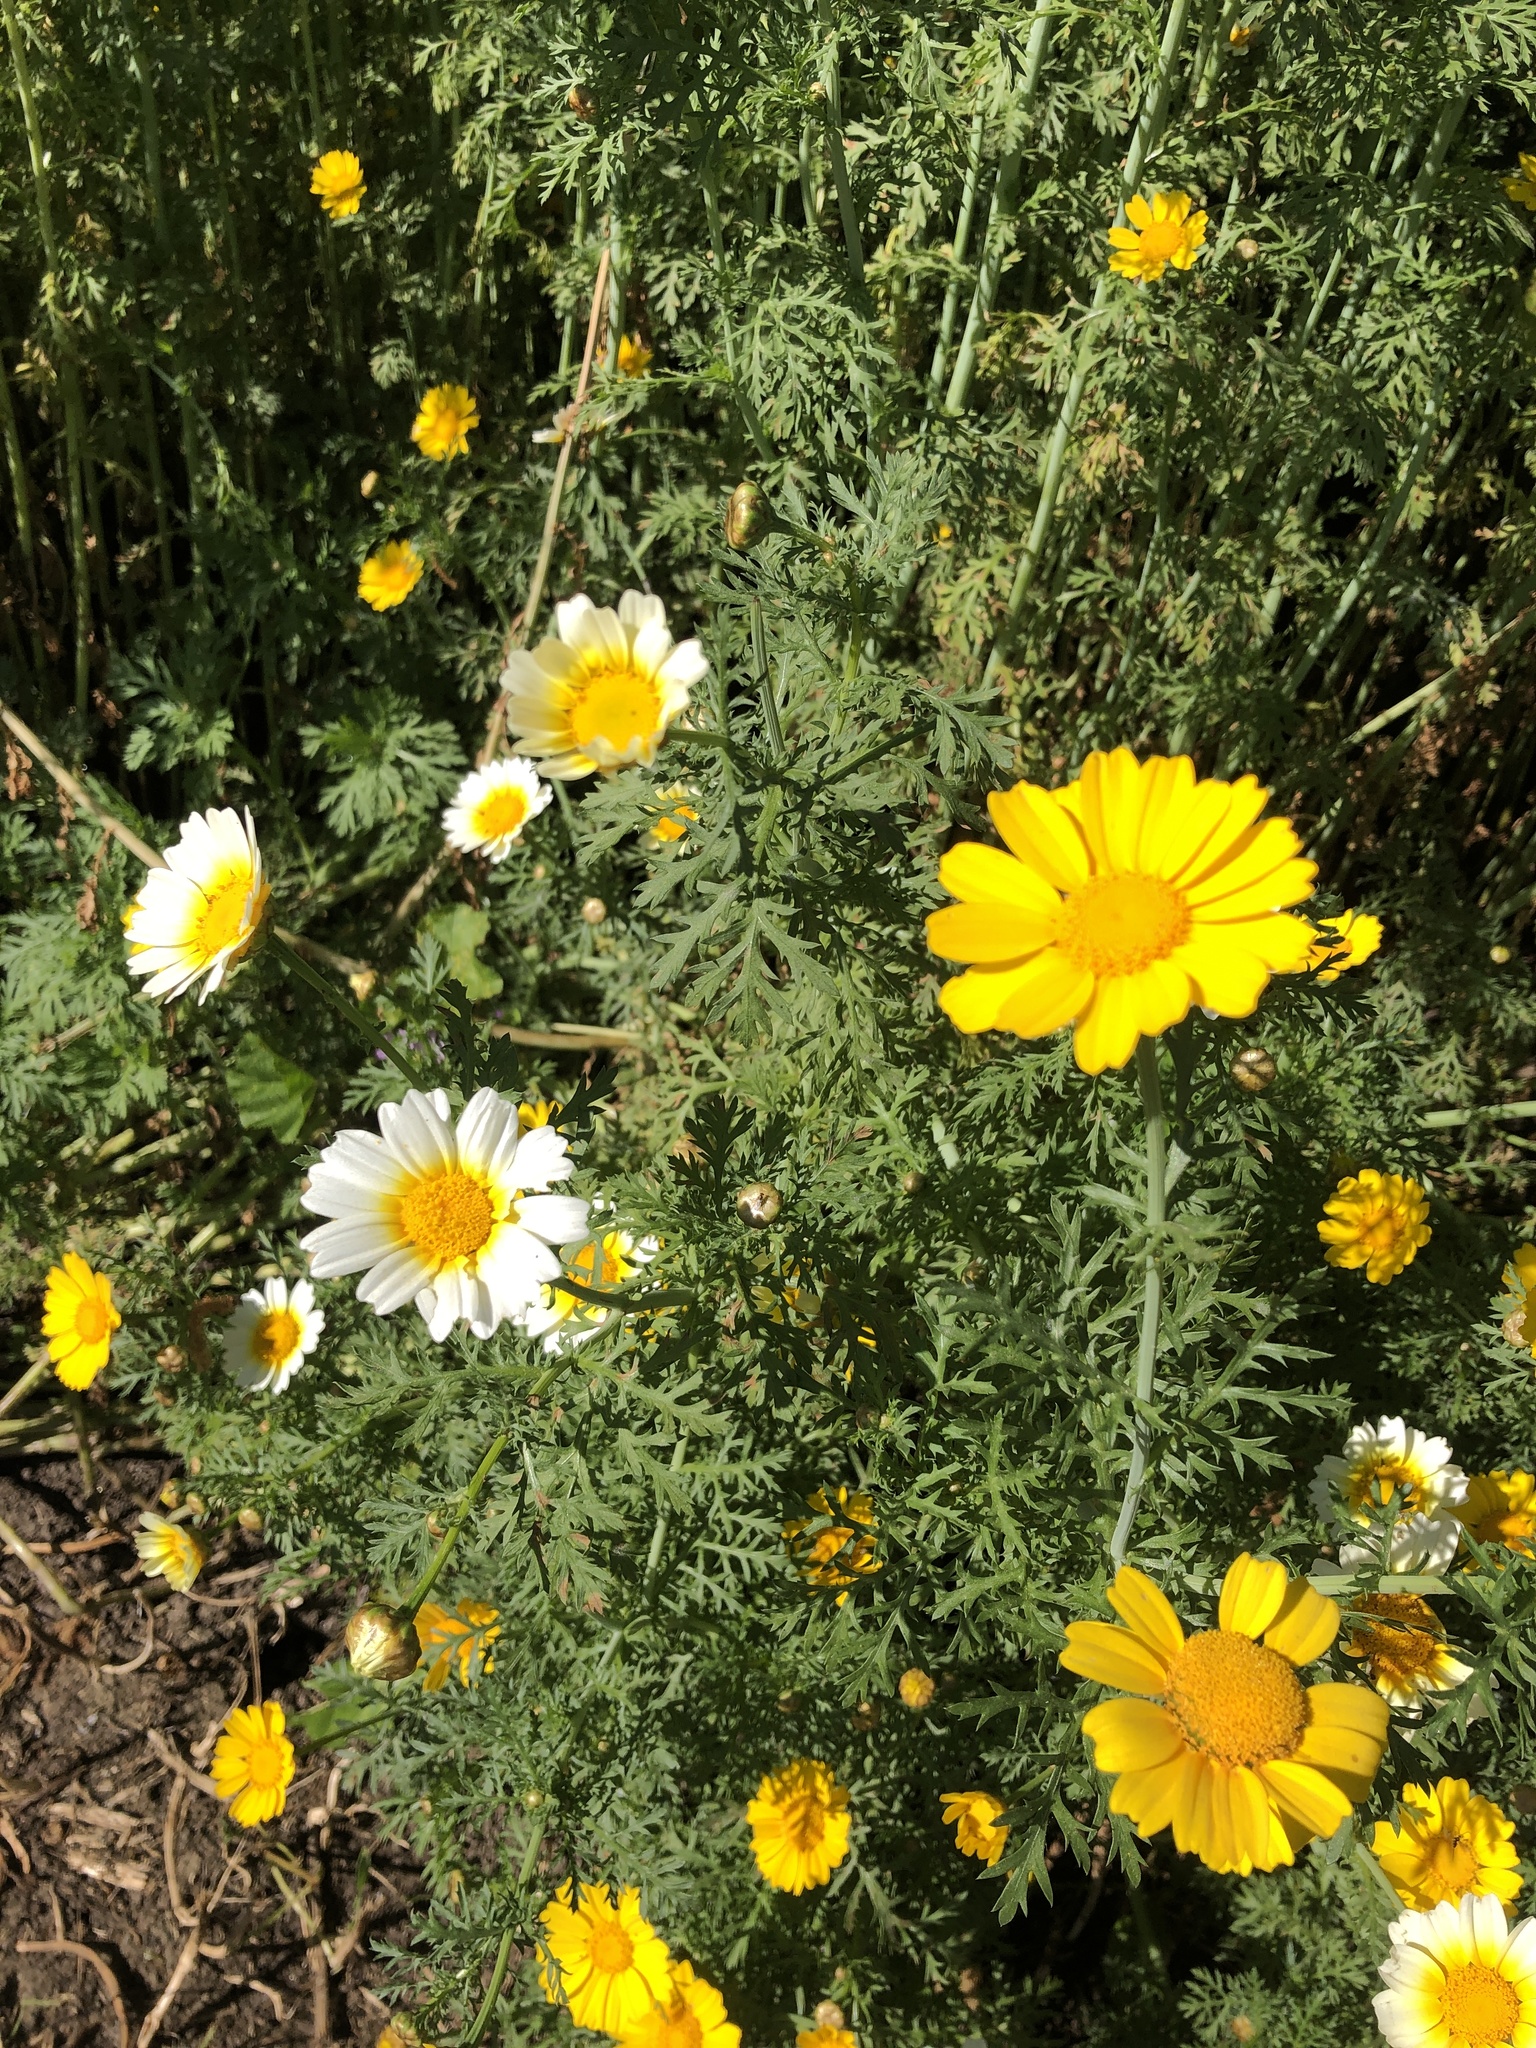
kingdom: Plantae
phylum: Tracheophyta
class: Magnoliopsida
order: Asterales
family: Asteraceae
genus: Glebionis
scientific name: Glebionis coronaria
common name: Crowndaisy
